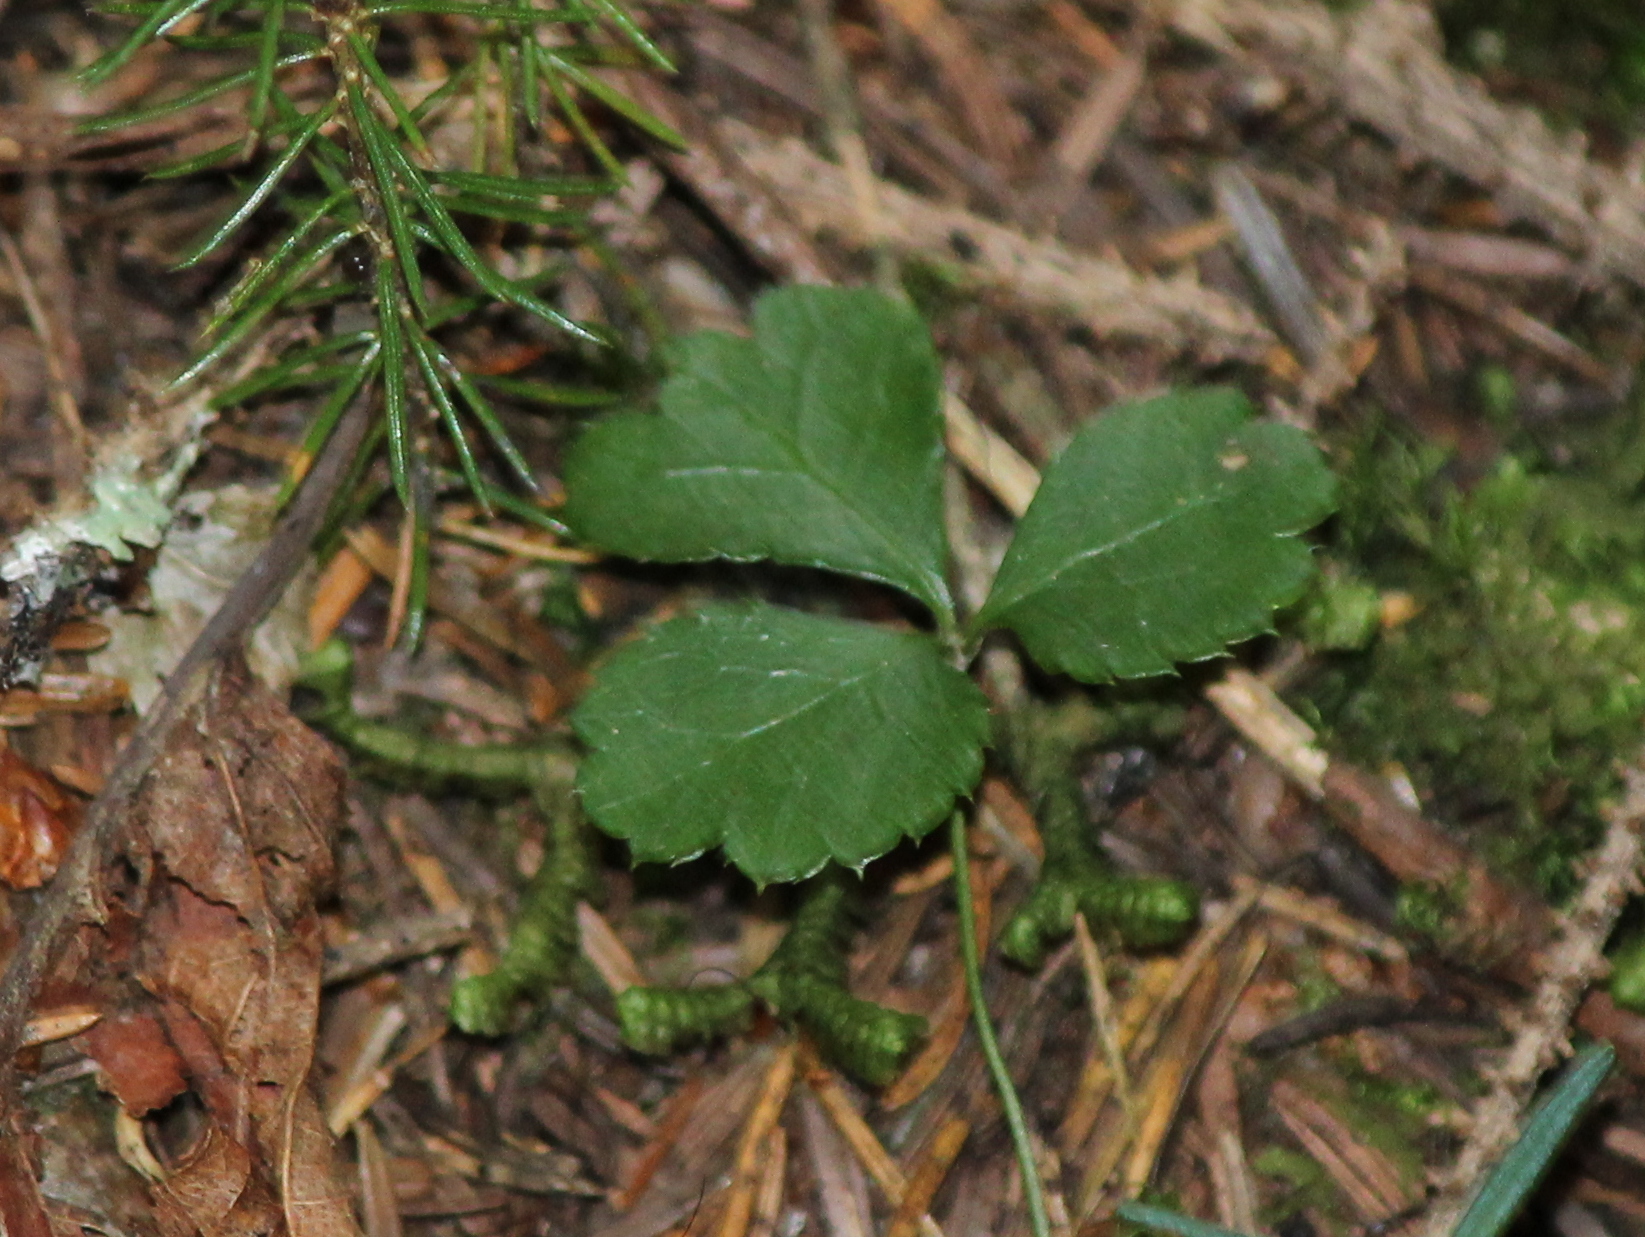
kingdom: Plantae
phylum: Tracheophyta
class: Magnoliopsida
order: Ranunculales
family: Ranunculaceae
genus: Coptis
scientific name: Coptis trifolia
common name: Canker-root
